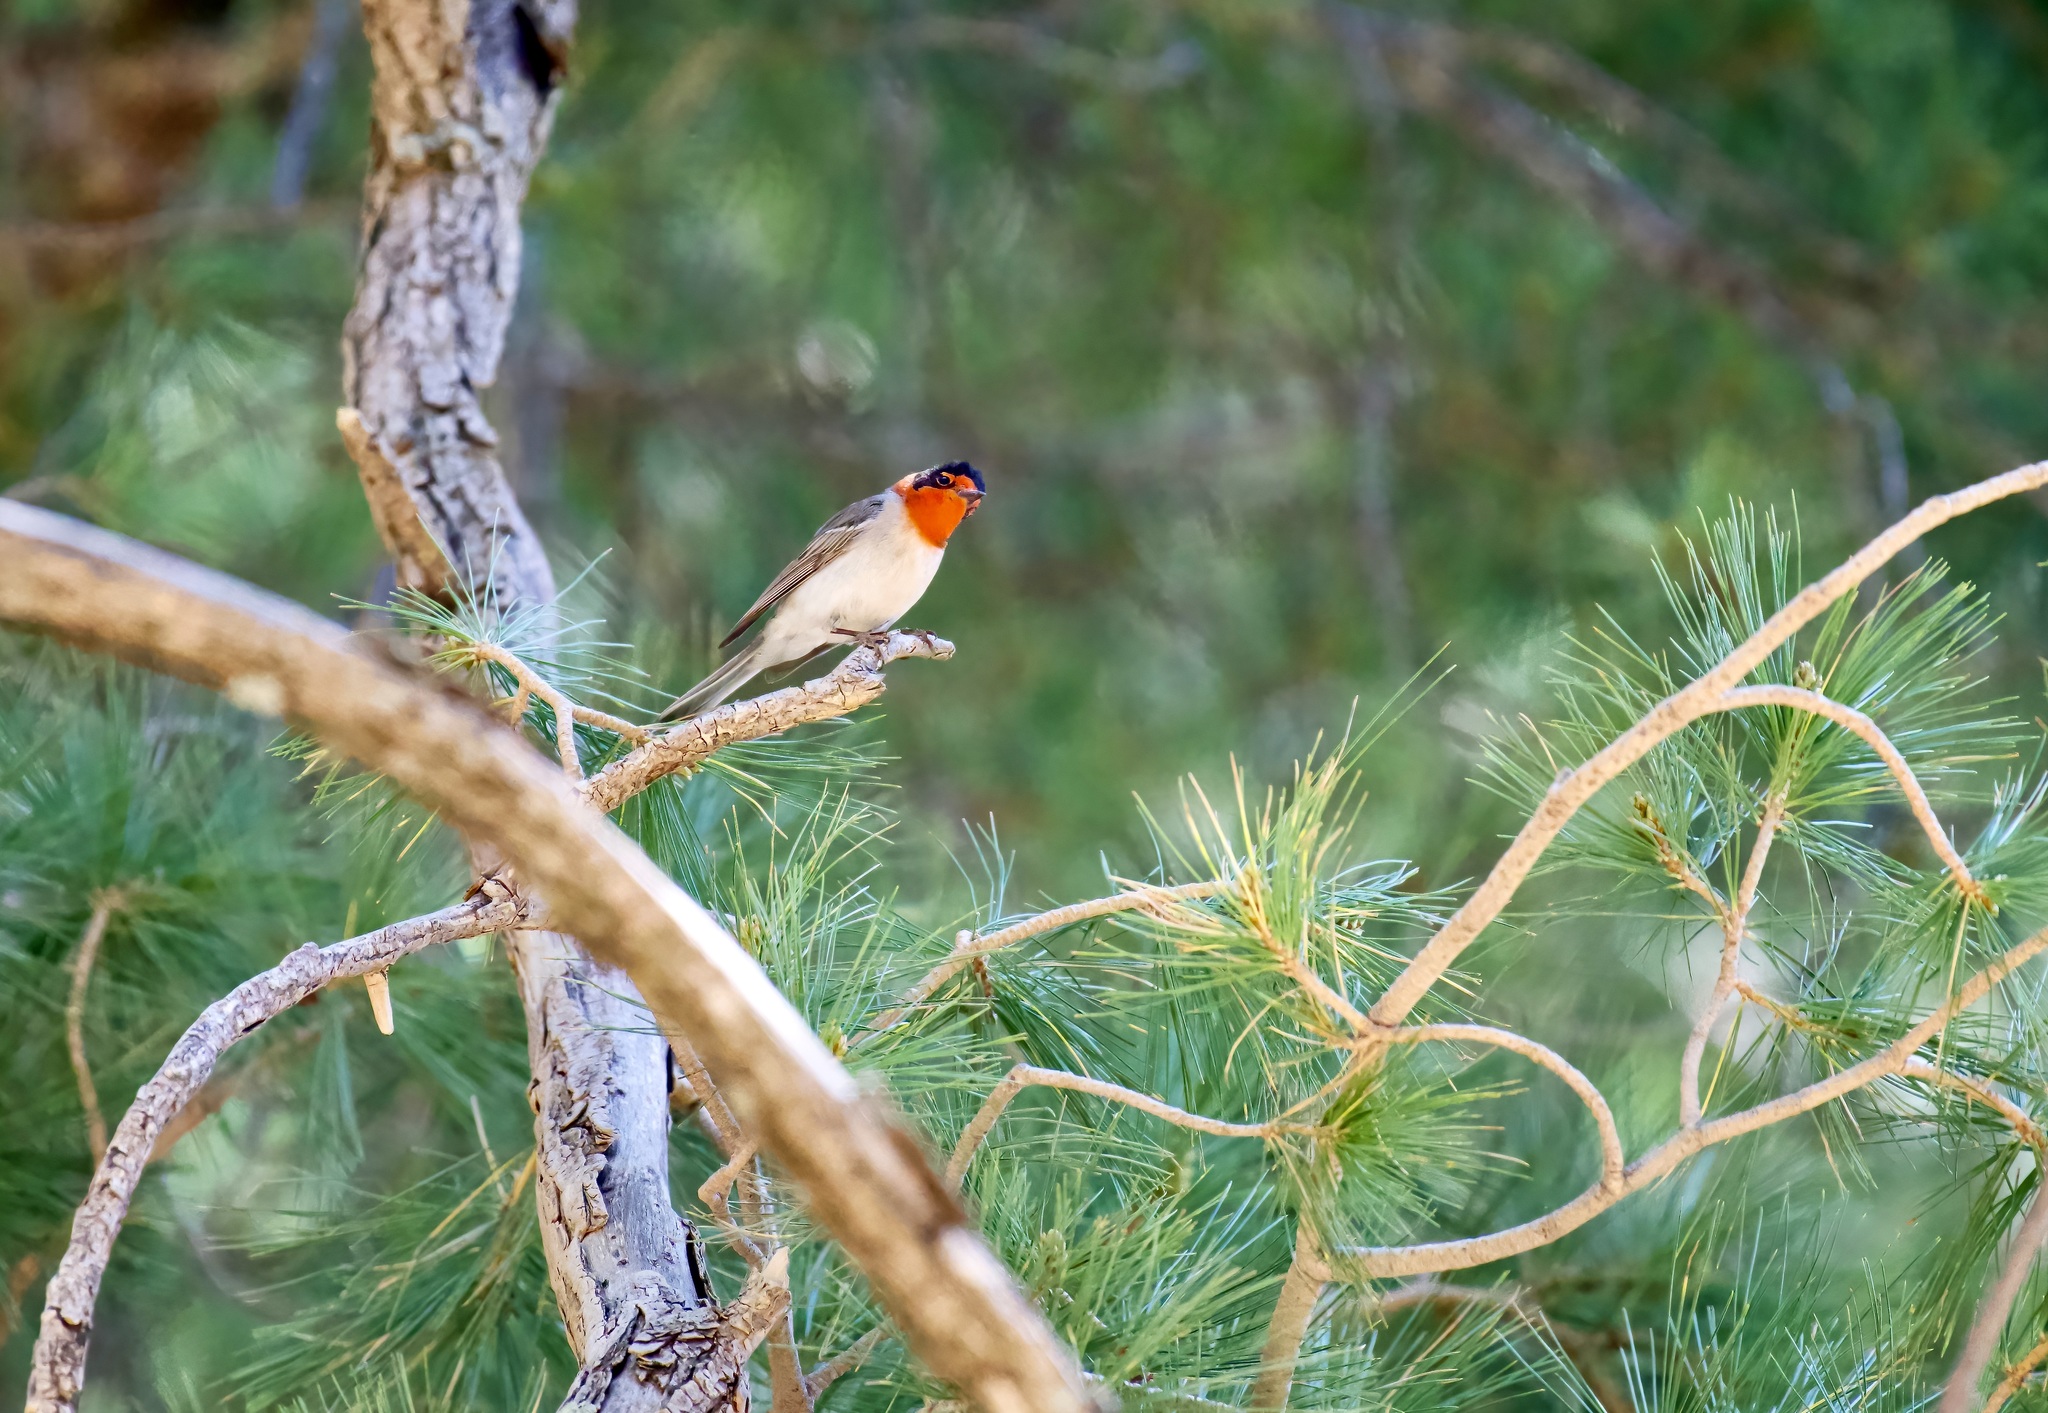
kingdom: Animalia
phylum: Chordata
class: Aves
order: Passeriformes
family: Parulidae
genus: Cardellina
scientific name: Cardellina rubrifrons
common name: Red-faced warbler
